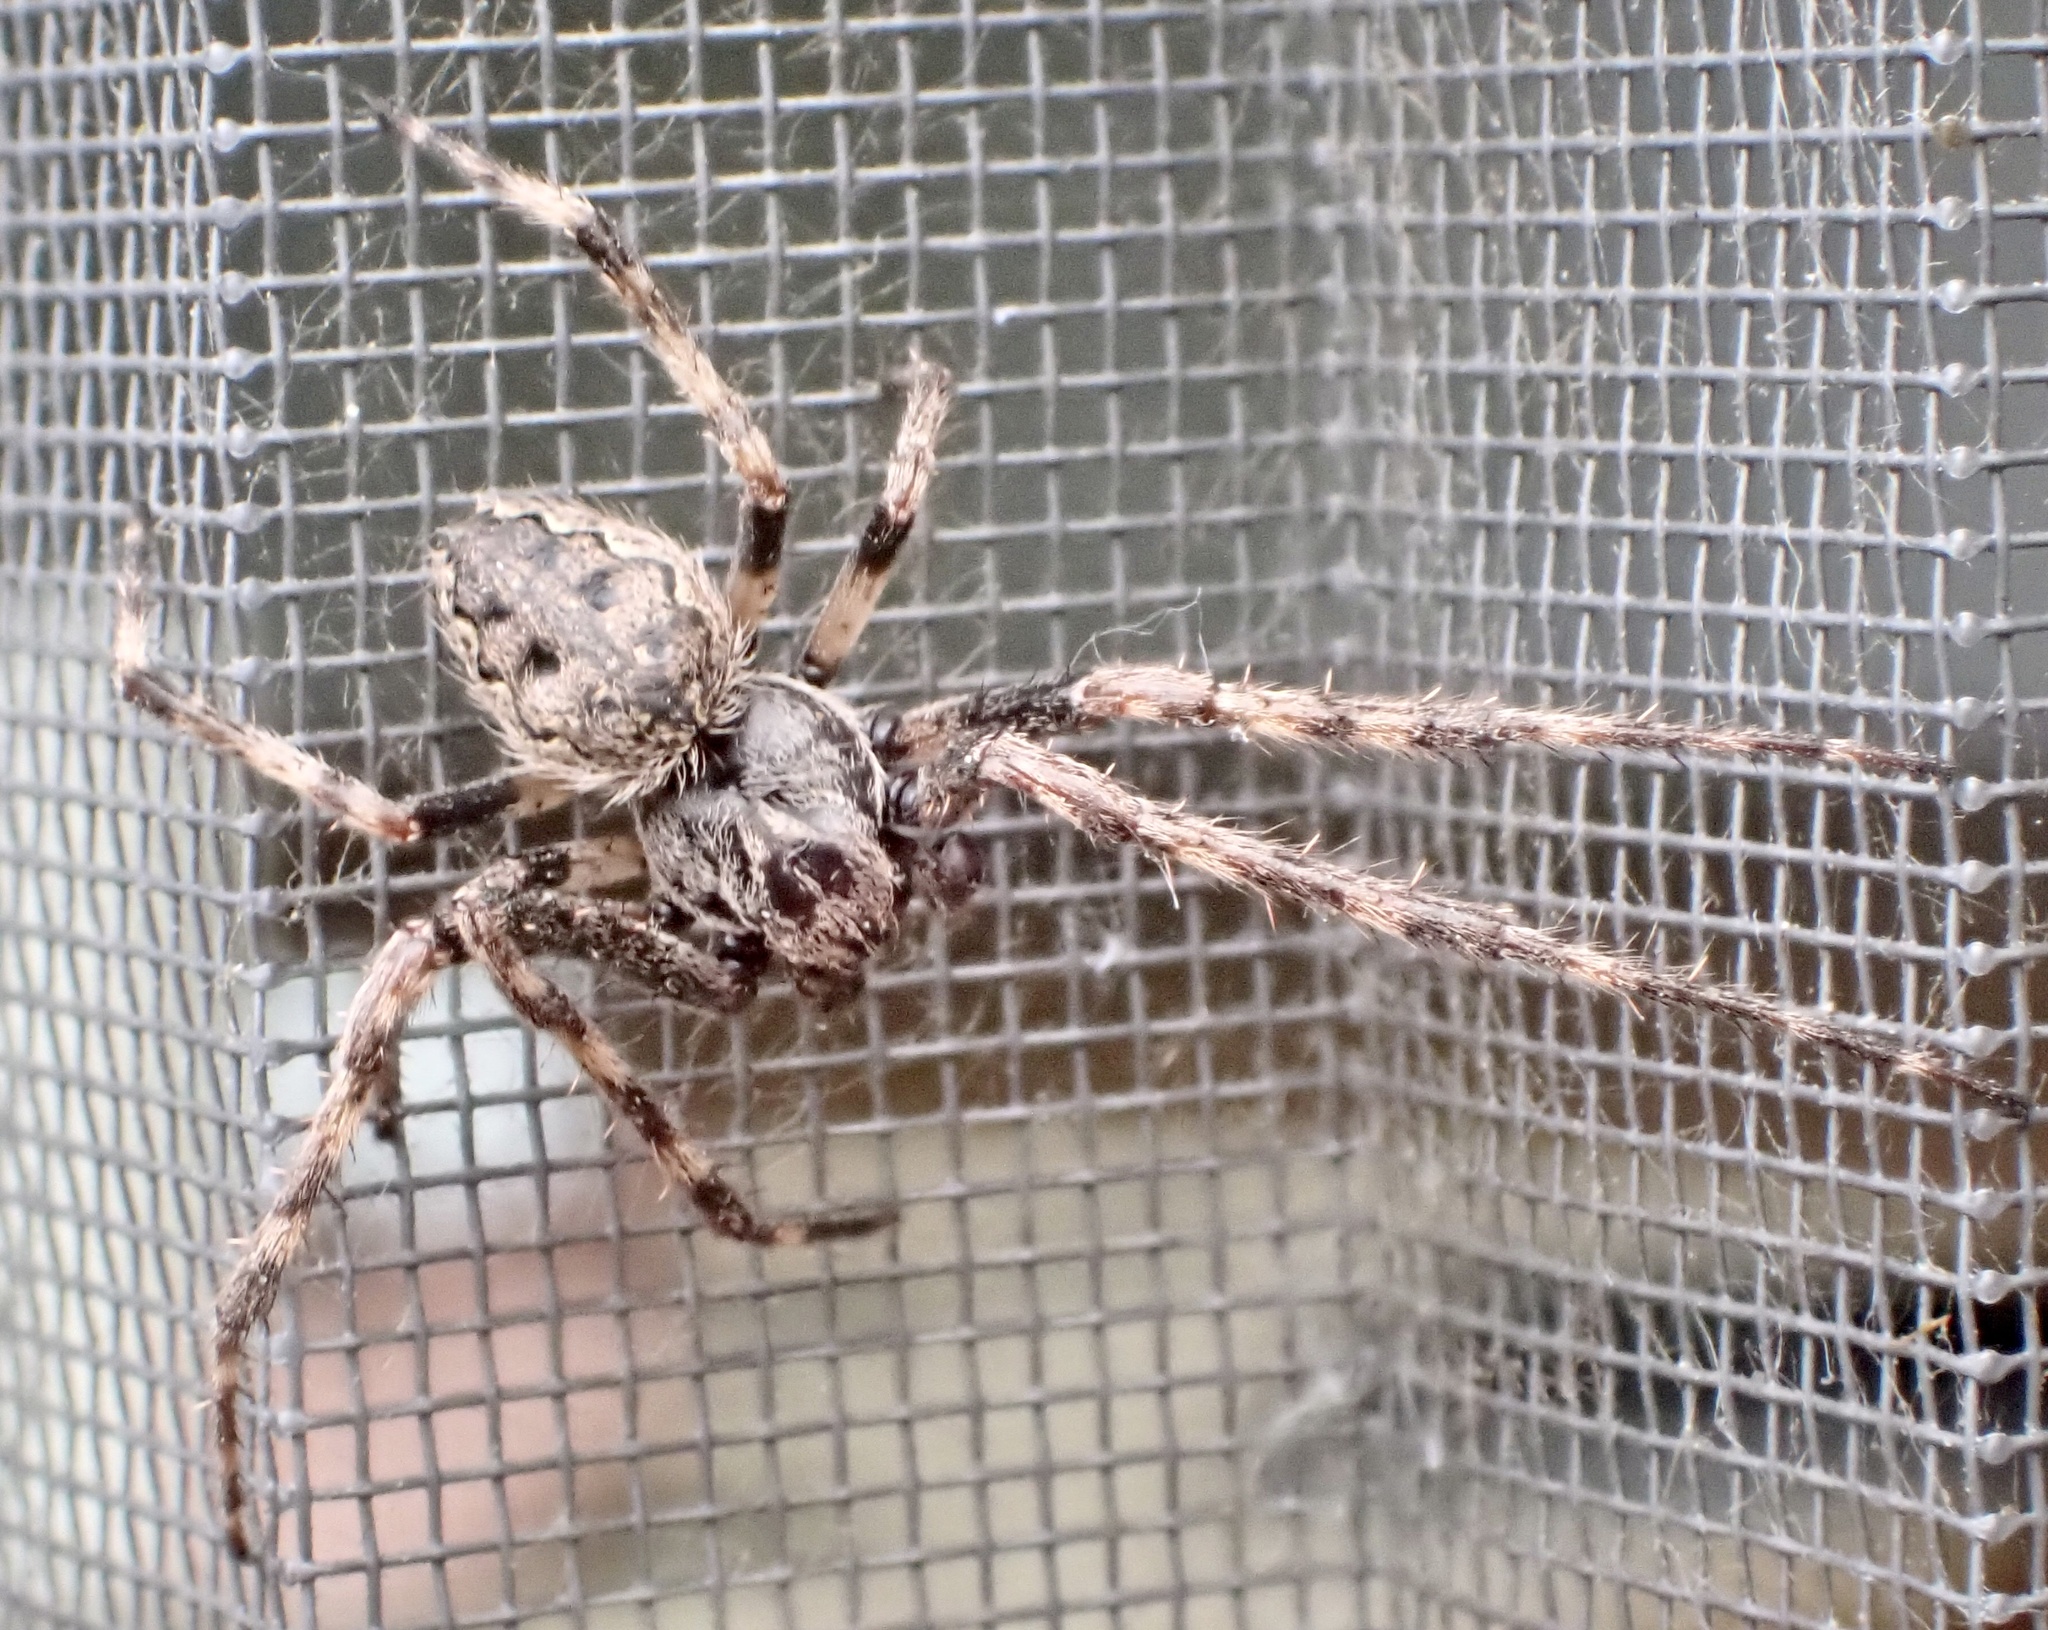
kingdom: Animalia
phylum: Arthropoda
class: Arachnida
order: Araneae
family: Araneidae
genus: Nuctenea
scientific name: Nuctenea umbratica
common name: Toad spider
